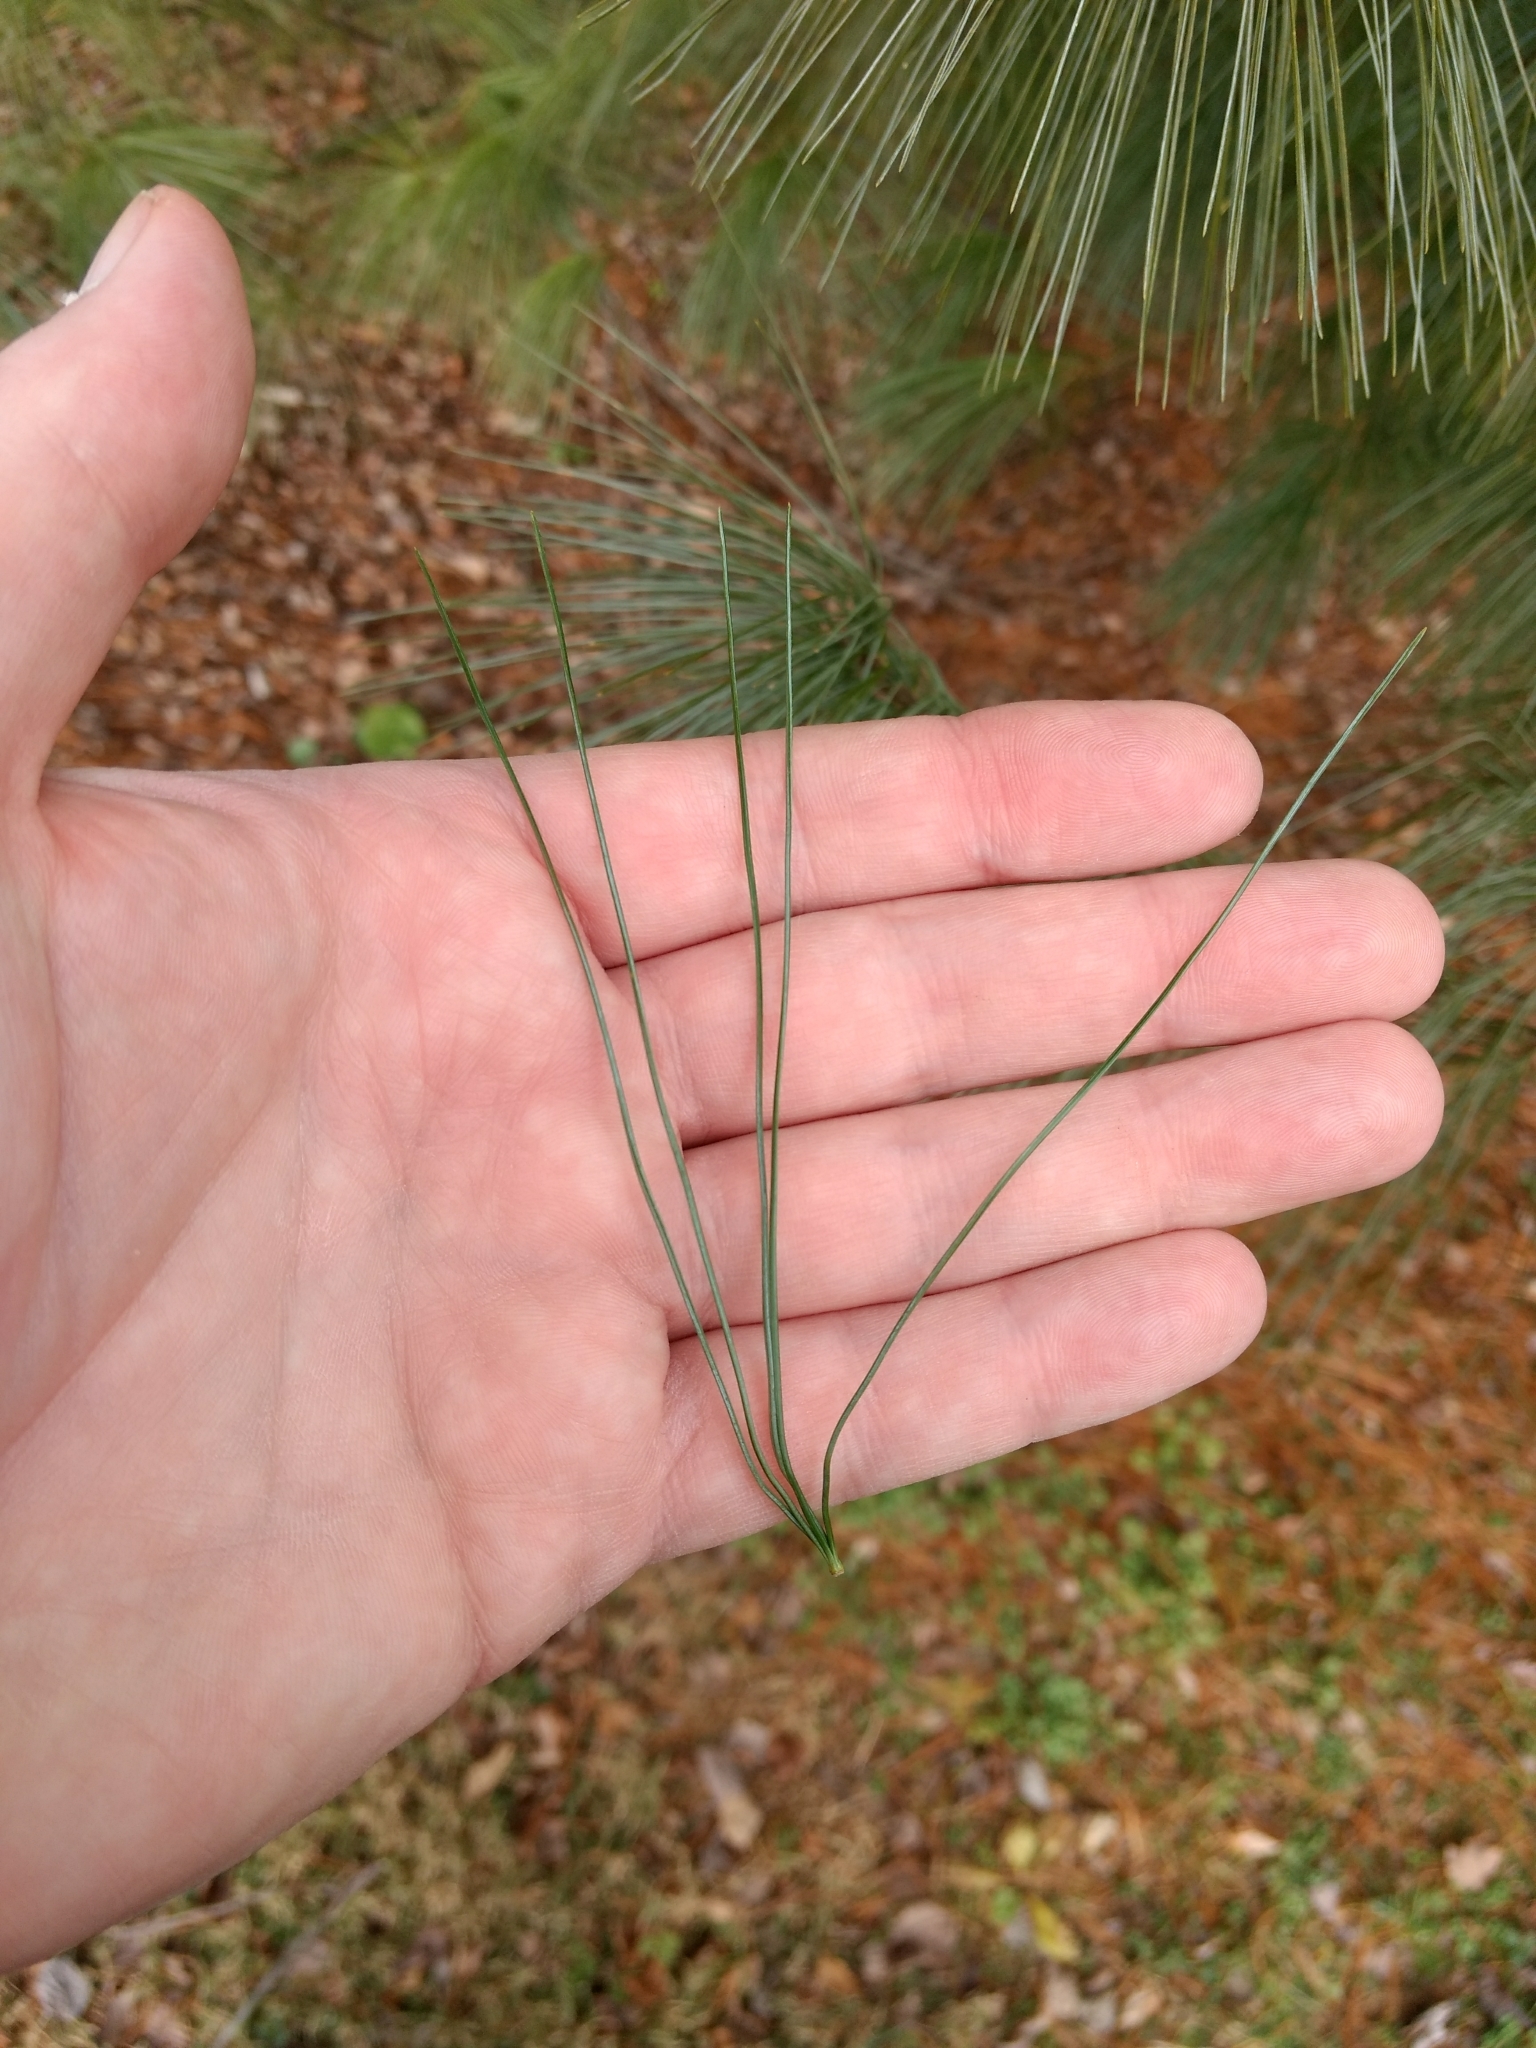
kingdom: Plantae
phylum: Tracheophyta
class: Pinopsida
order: Pinales
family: Pinaceae
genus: Pinus
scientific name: Pinus strobus
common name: Weymouth pine
